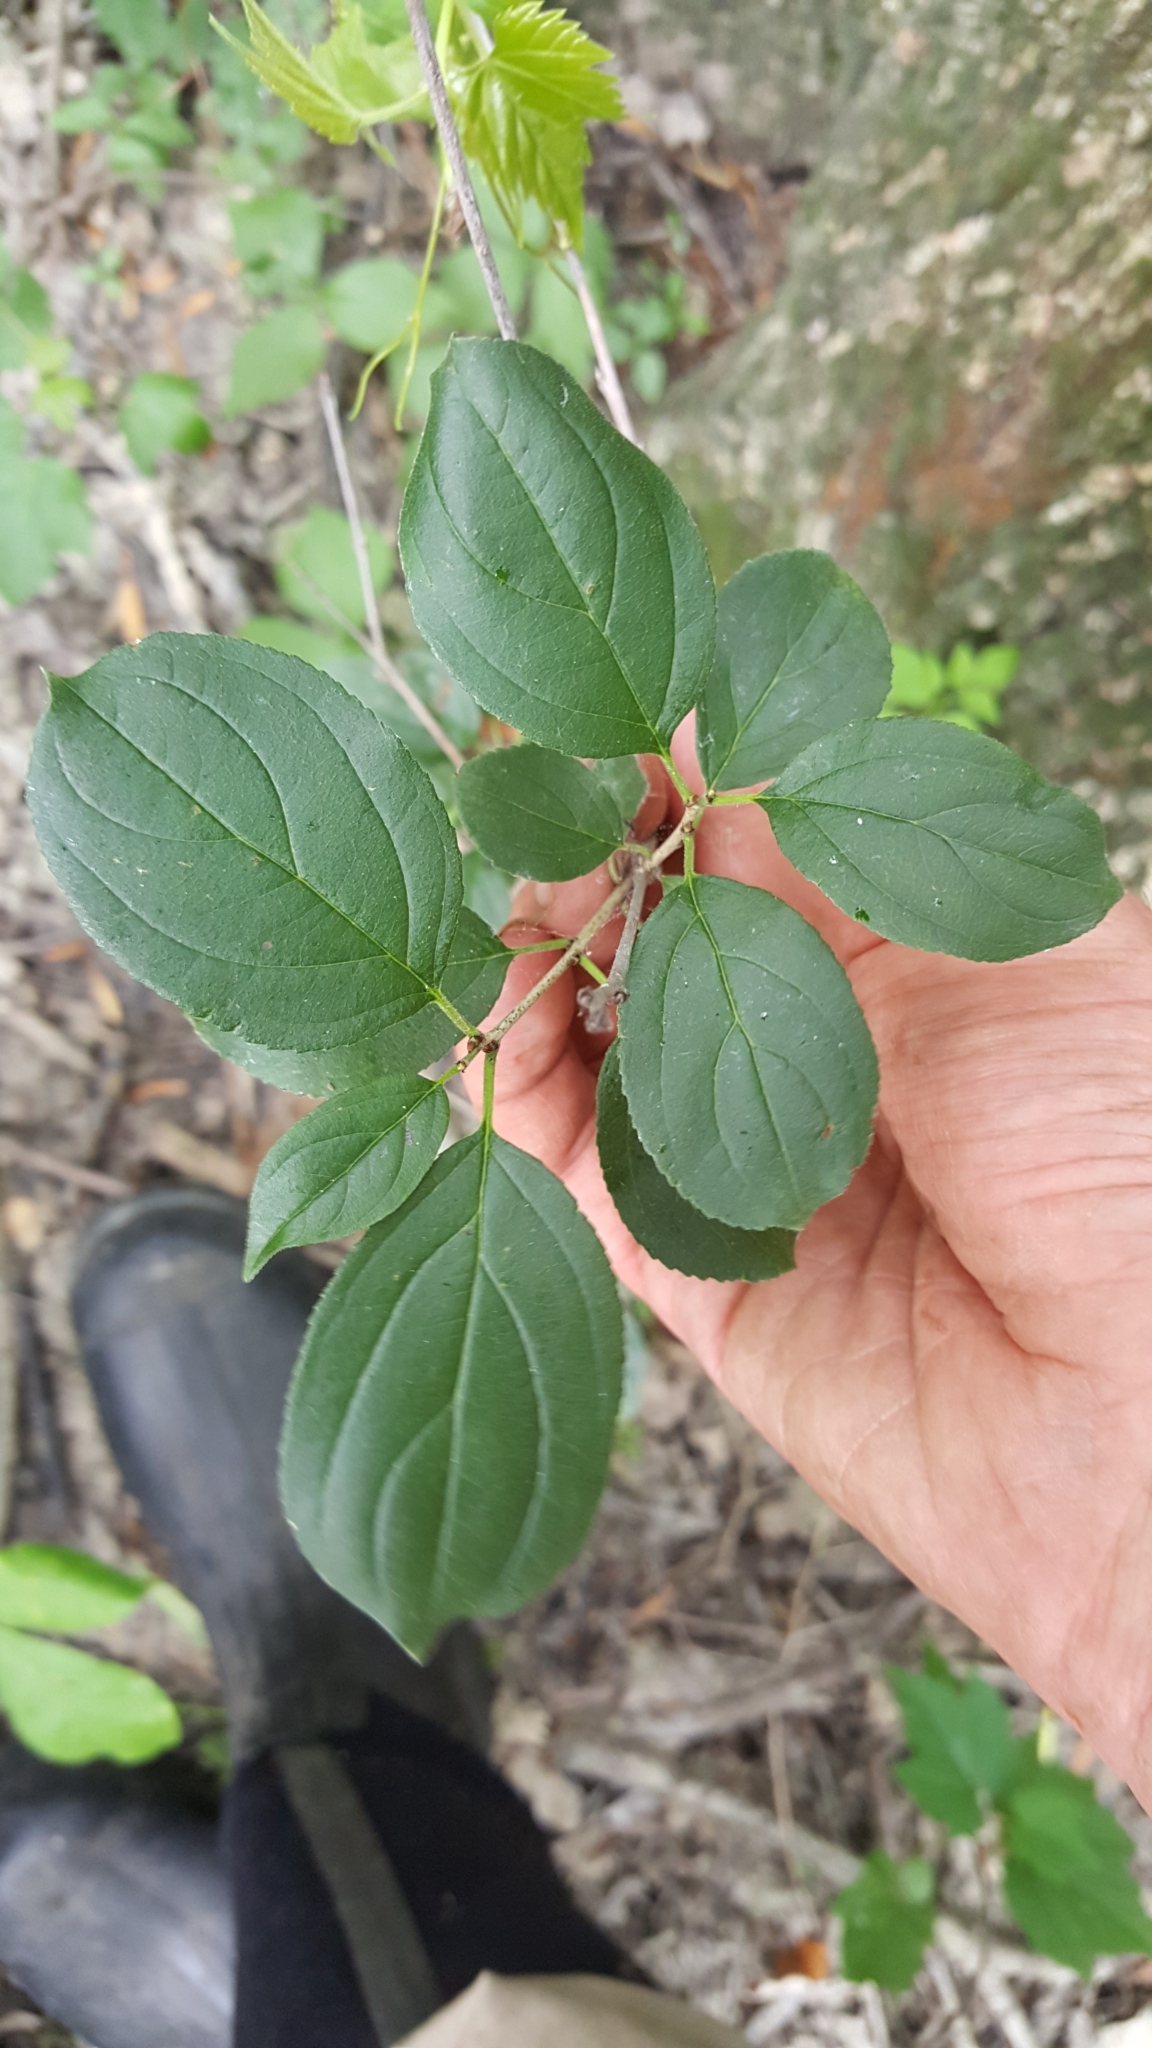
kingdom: Plantae
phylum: Tracheophyta
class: Magnoliopsida
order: Rosales
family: Rhamnaceae
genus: Rhamnus
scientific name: Rhamnus cathartica
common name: Common buckthorn
